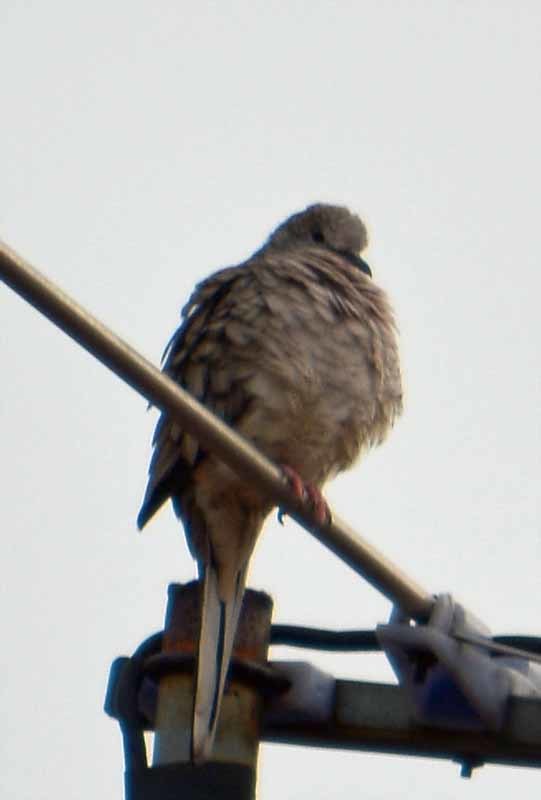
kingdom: Animalia
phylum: Chordata
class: Aves
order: Columbiformes
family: Columbidae
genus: Columbina
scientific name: Columbina inca
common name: Inca dove
